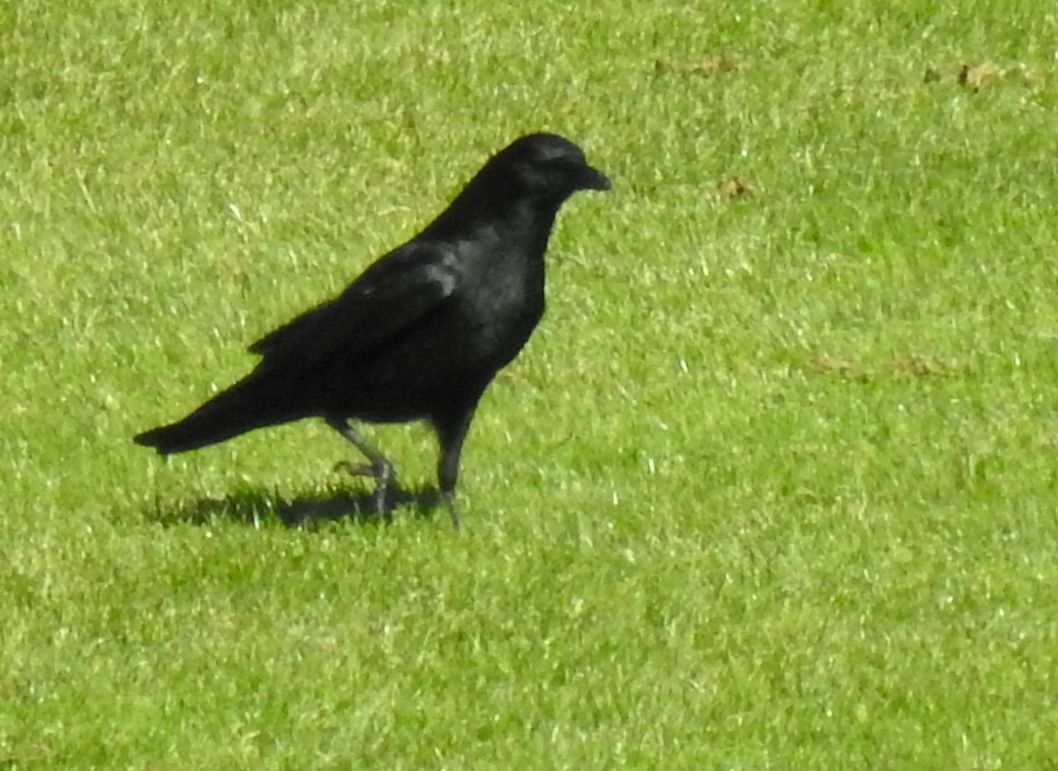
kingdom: Animalia
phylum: Chordata
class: Aves
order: Passeriformes
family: Corvidae
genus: Corvus
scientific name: Corvus brachyrhynchos
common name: American crow
